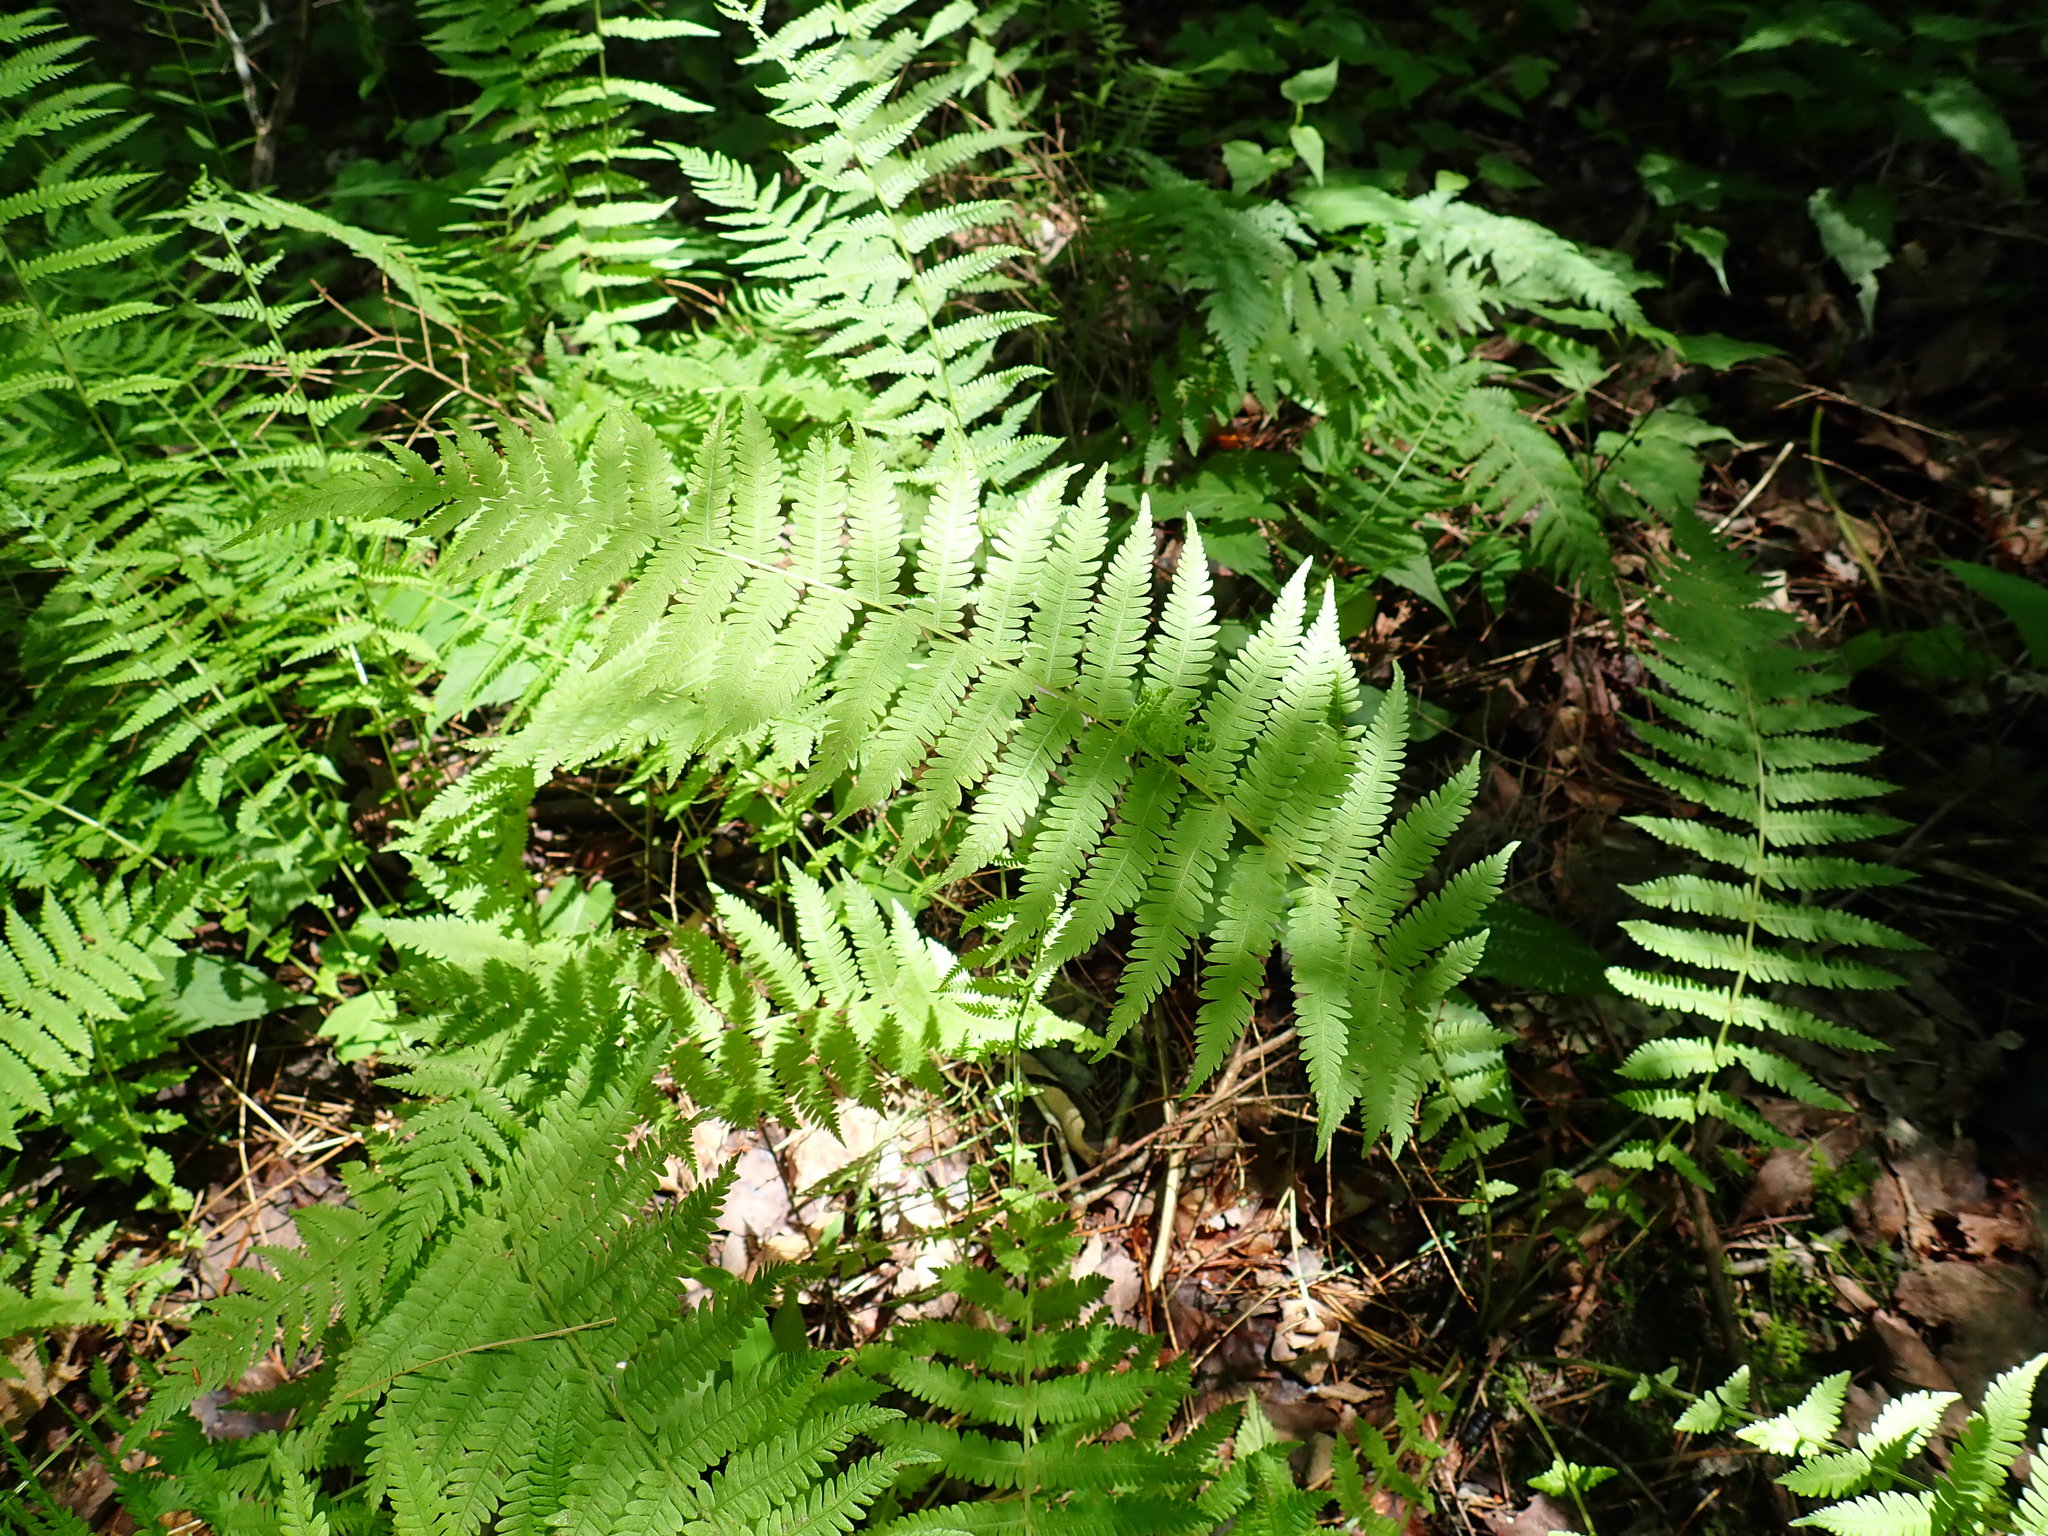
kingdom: Plantae
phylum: Tracheophyta
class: Polypodiopsida
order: Polypodiales
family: Thelypteridaceae
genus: Amauropelta
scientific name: Amauropelta noveboracensis
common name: New york fern
